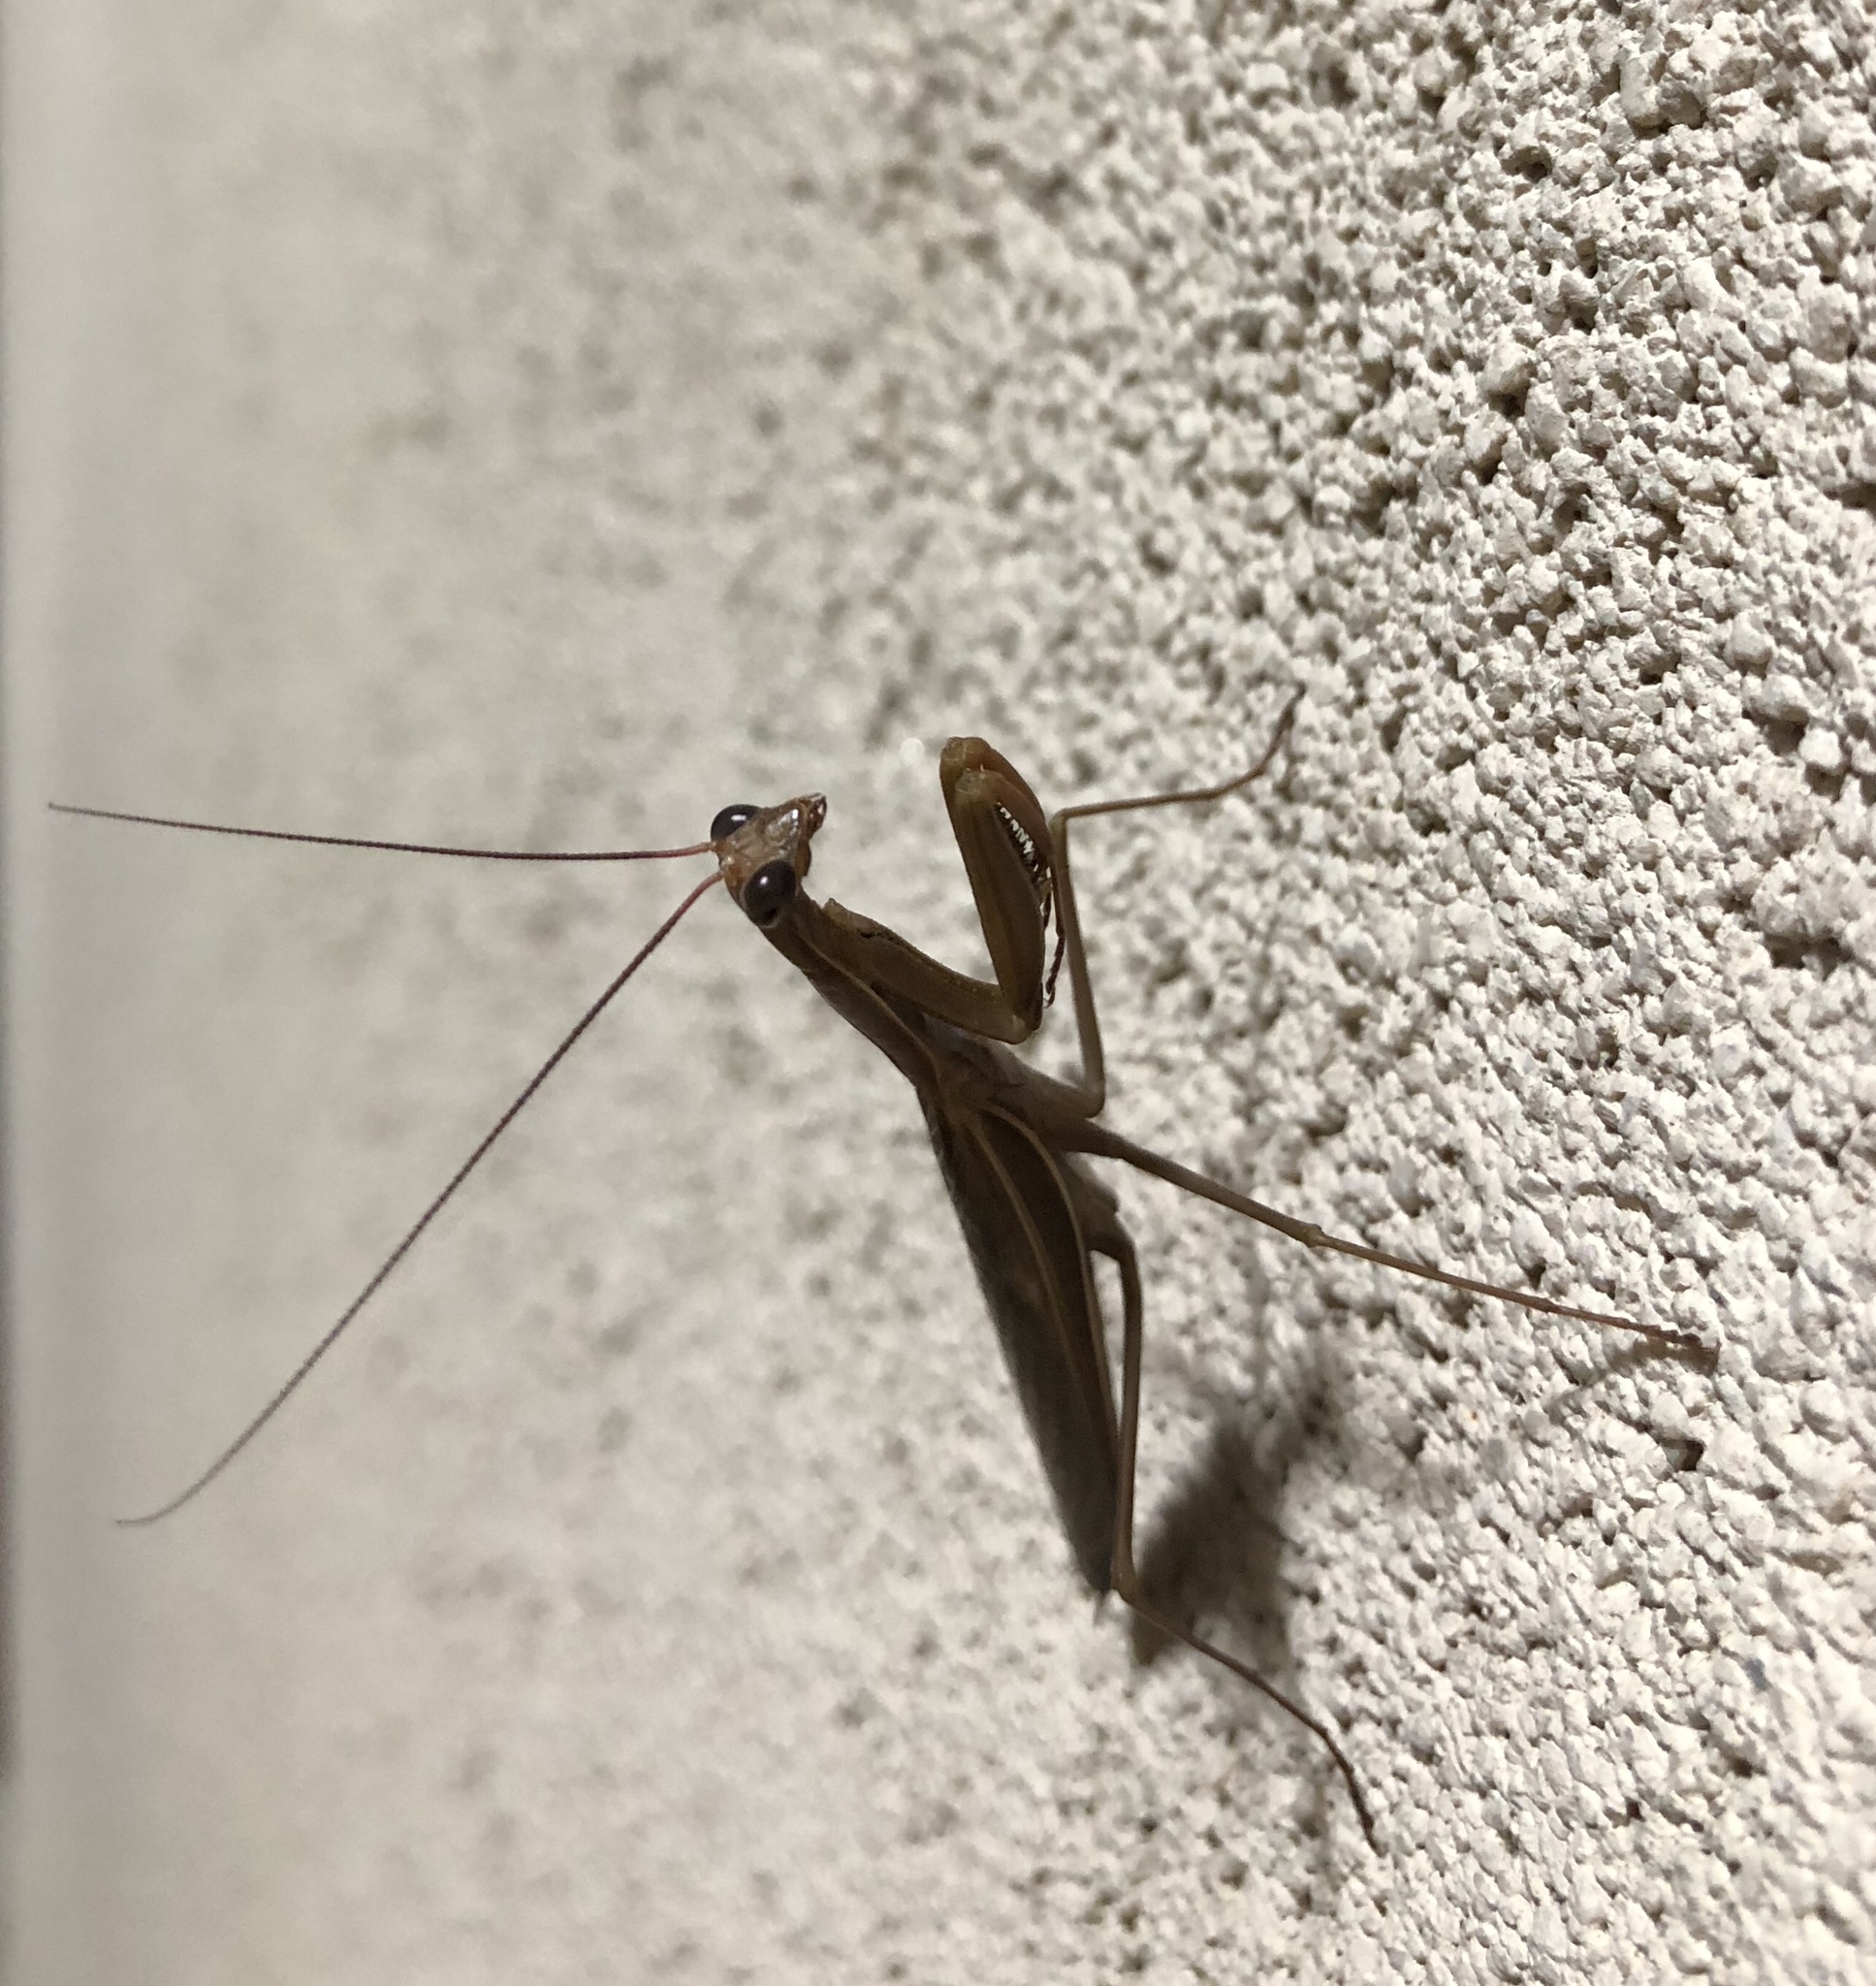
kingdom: Animalia
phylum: Arthropoda
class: Insecta
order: Mantodea
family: Mantidae
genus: Mantis
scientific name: Mantis religiosa
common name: Praying mantis
